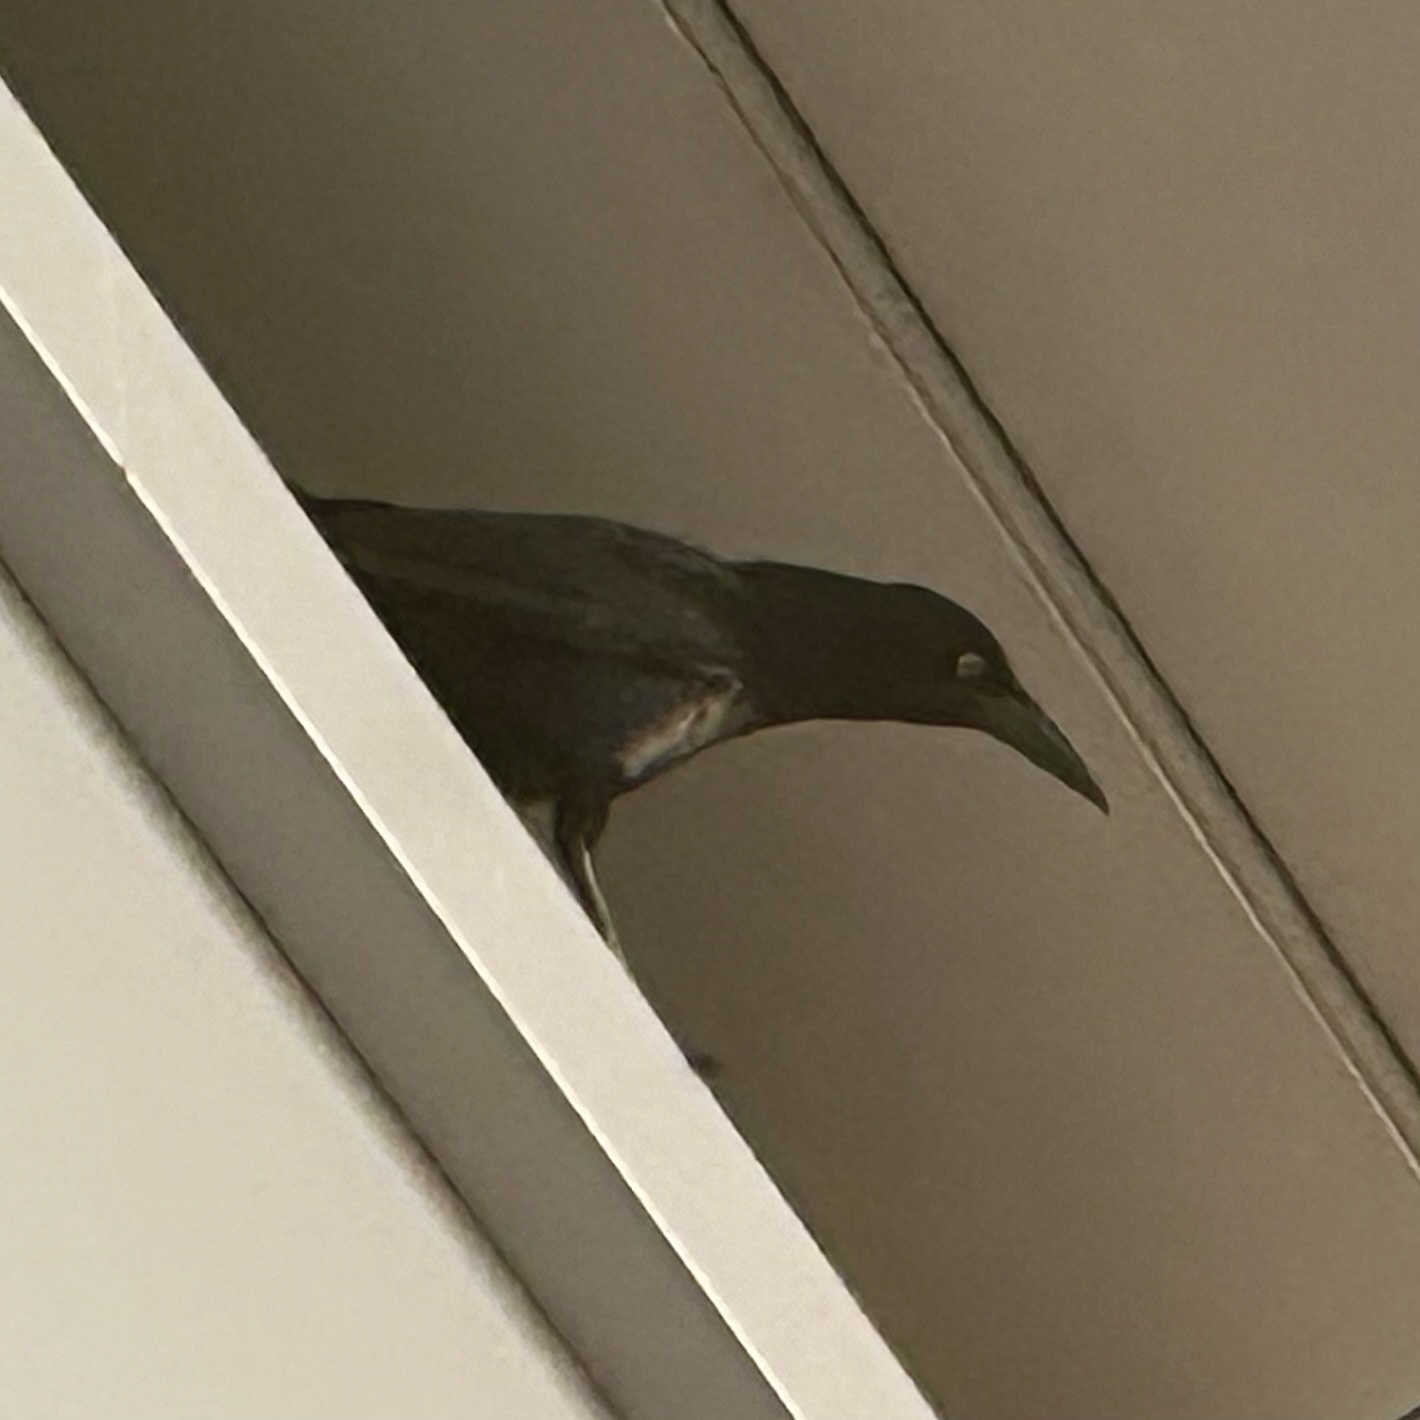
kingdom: Animalia
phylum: Chordata
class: Aves
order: Passeriformes
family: Icteridae
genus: Quiscalus
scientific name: Quiscalus mexicanus
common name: Great-tailed grackle
